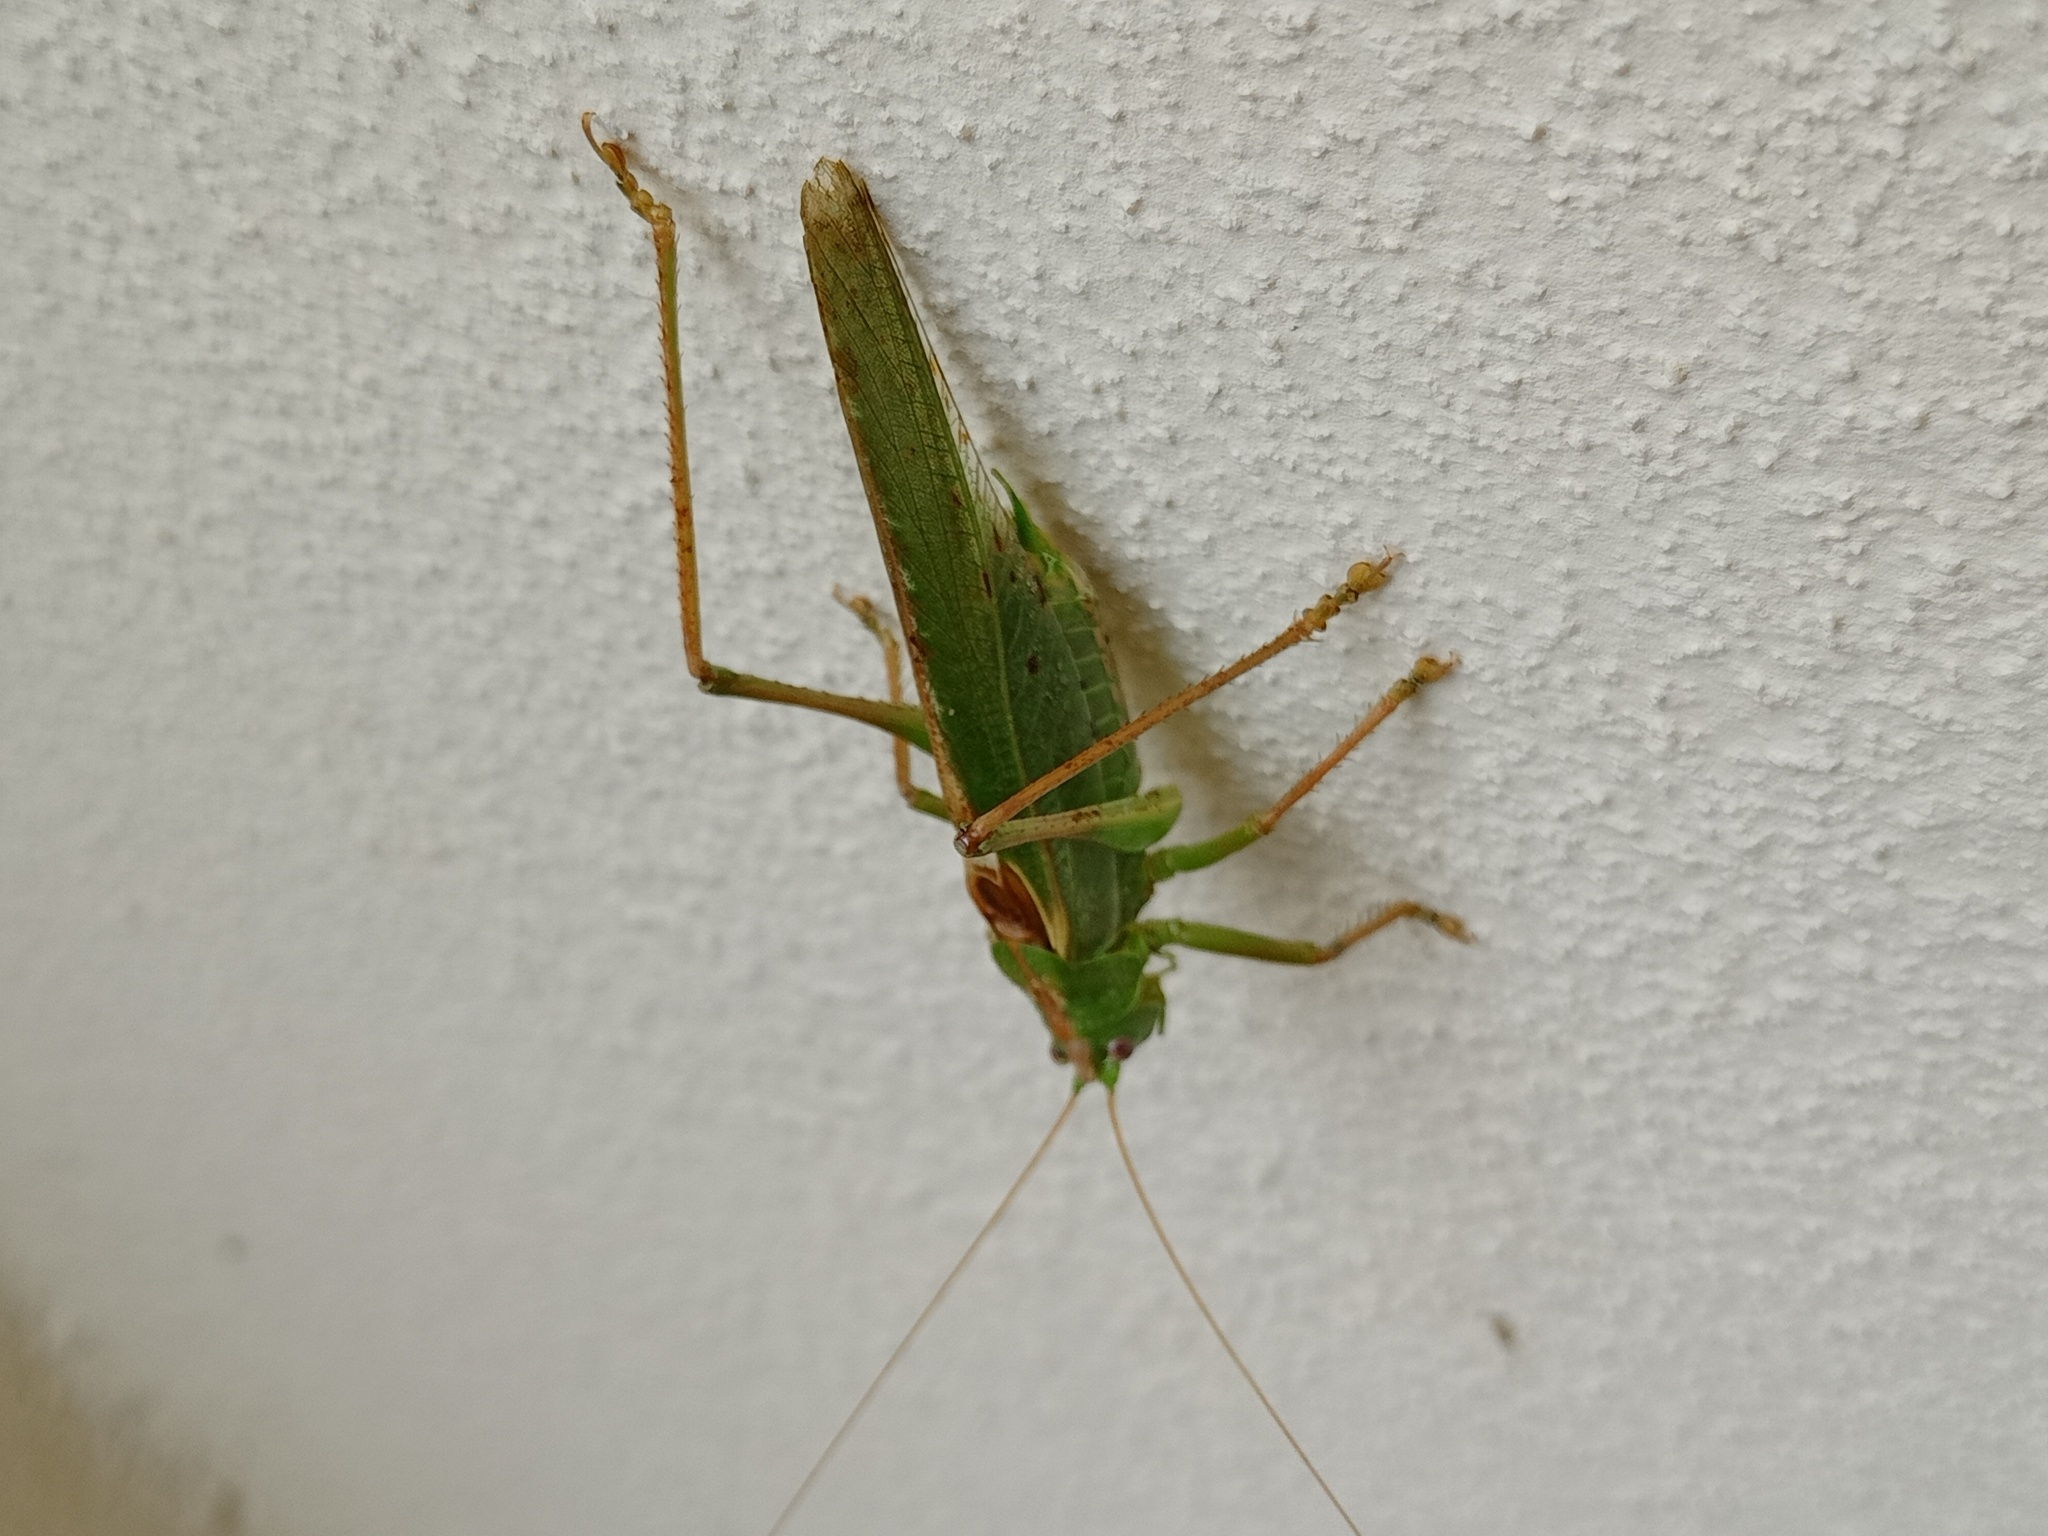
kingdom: Animalia
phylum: Arthropoda
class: Insecta
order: Orthoptera
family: Tettigoniidae
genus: Tettigonia
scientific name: Tettigonia viridissima
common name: Great green bush-cricket
